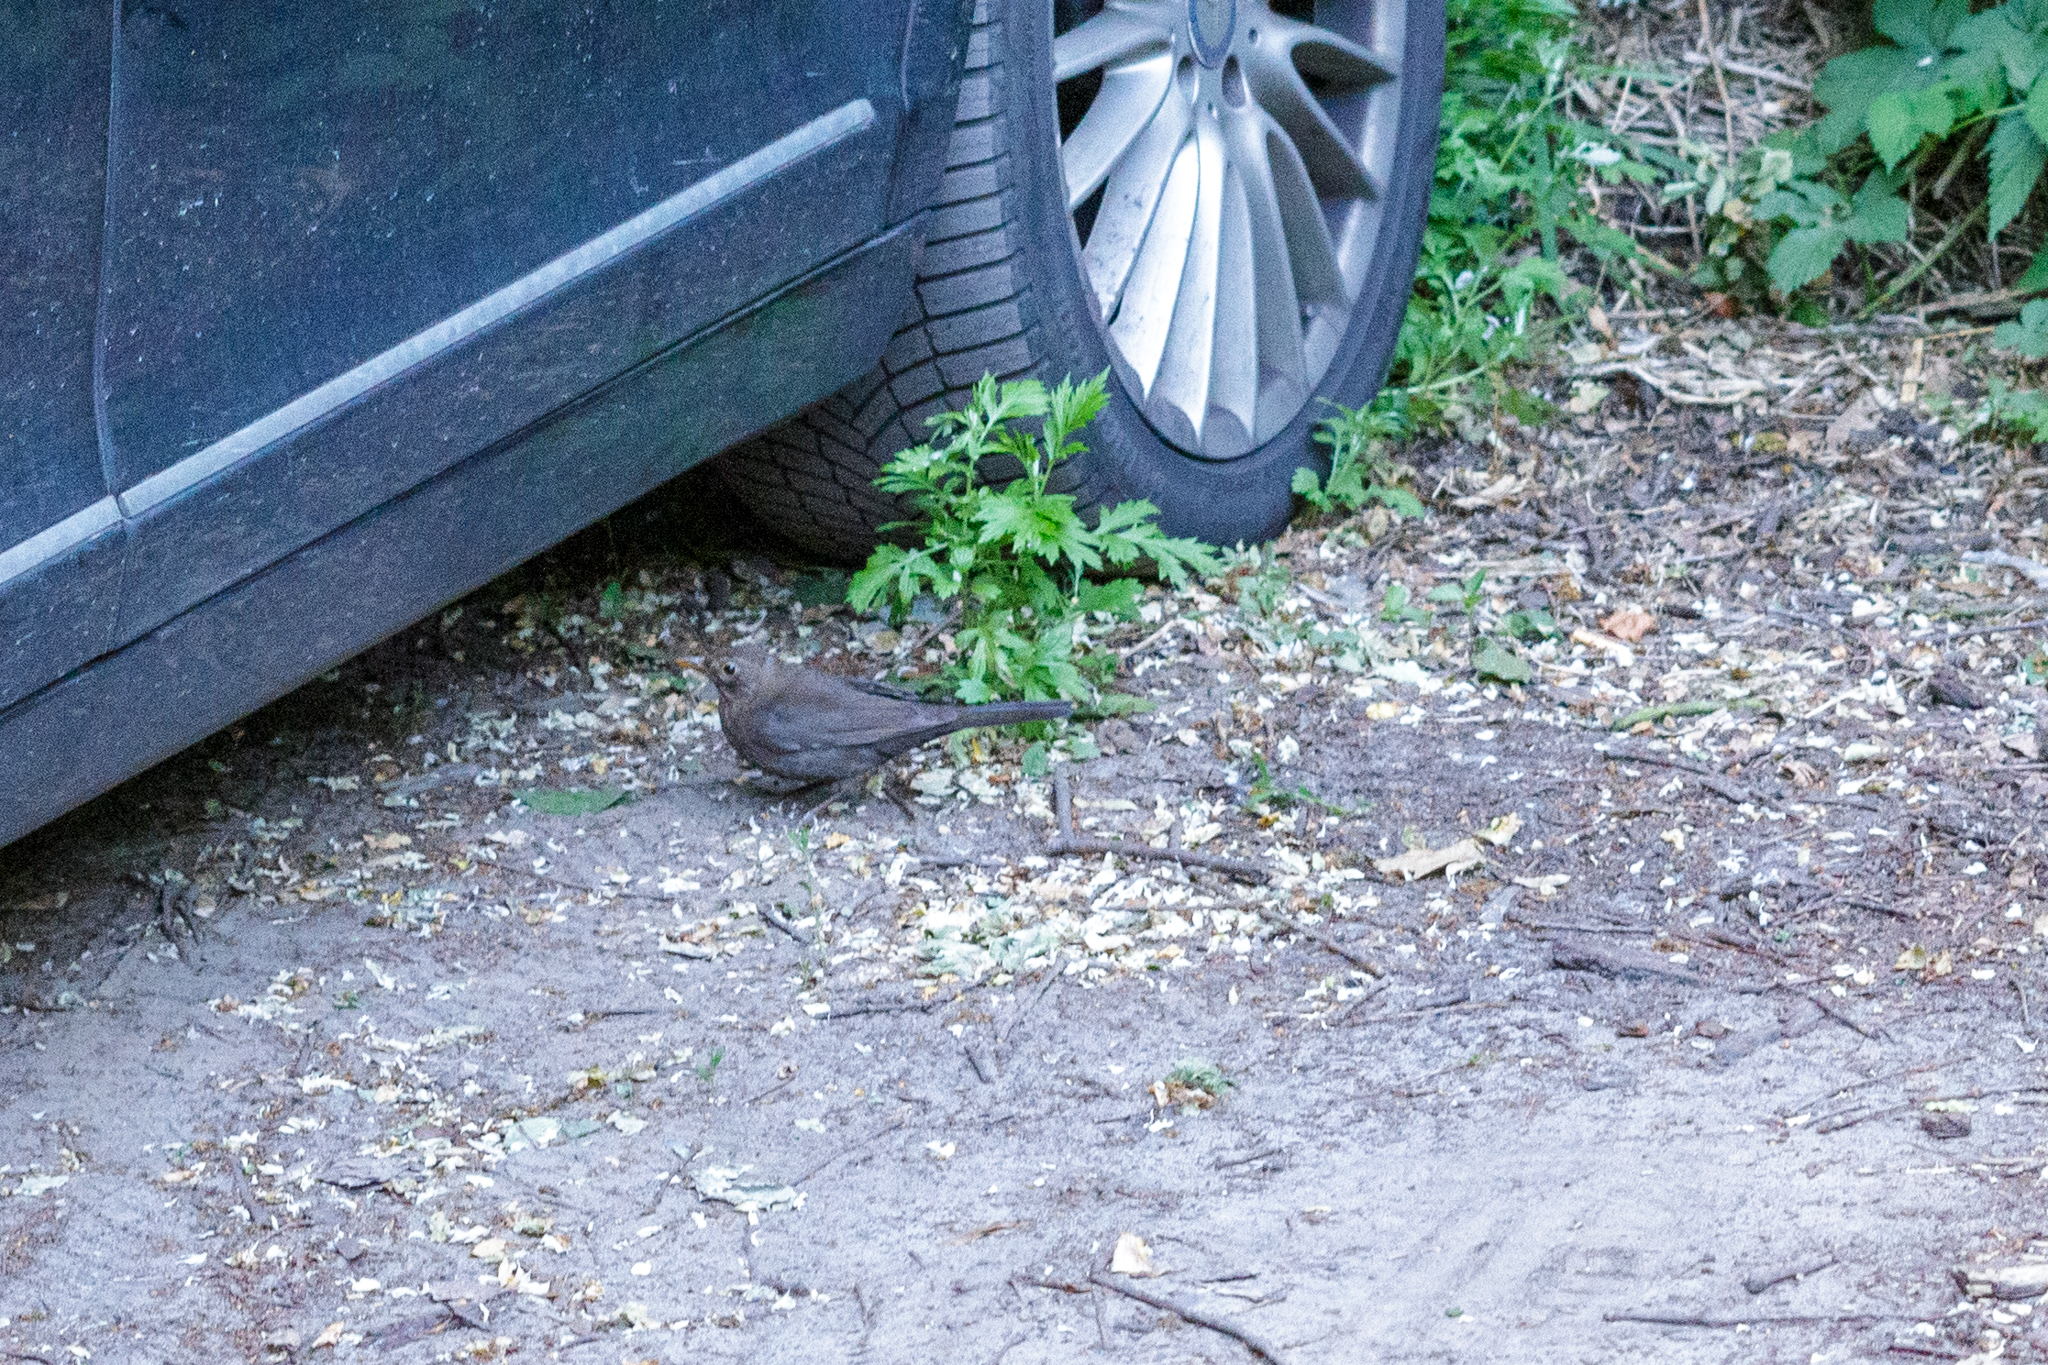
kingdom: Animalia
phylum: Chordata
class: Aves
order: Passeriformes
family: Turdidae
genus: Turdus
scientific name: Turdus merula
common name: Common blackbird
